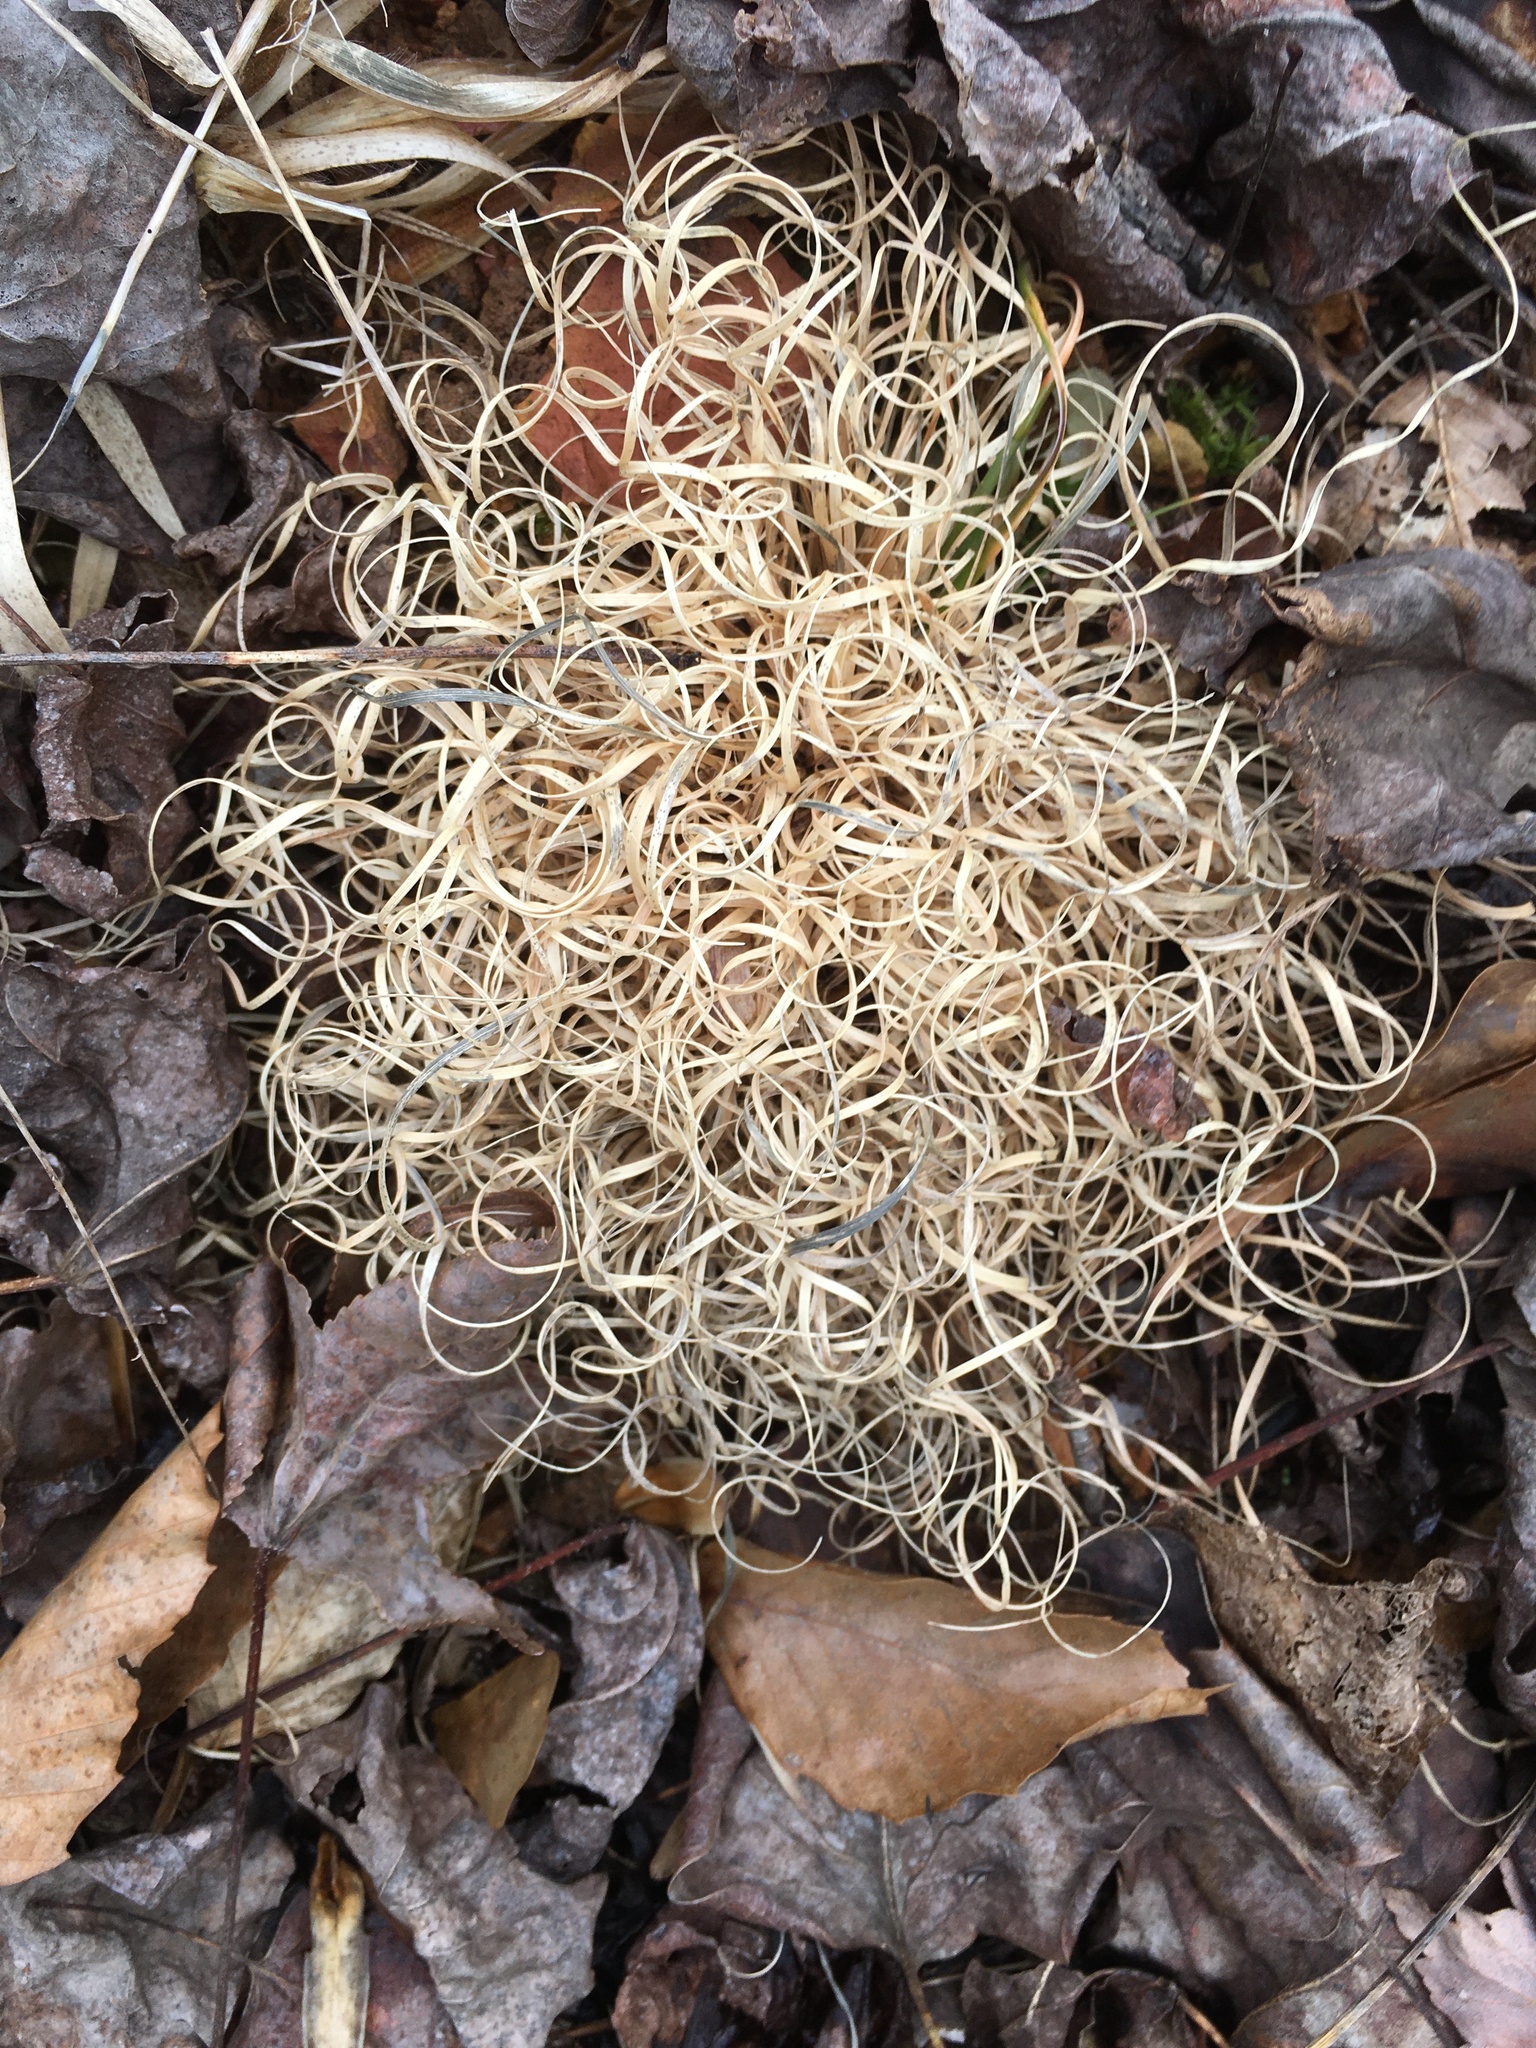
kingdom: Plantae
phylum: Tracheophyta
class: Liliopsida
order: Poales
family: Poaceae
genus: Danthonia
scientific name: Danthonia spicata
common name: Common wild oatgrass
